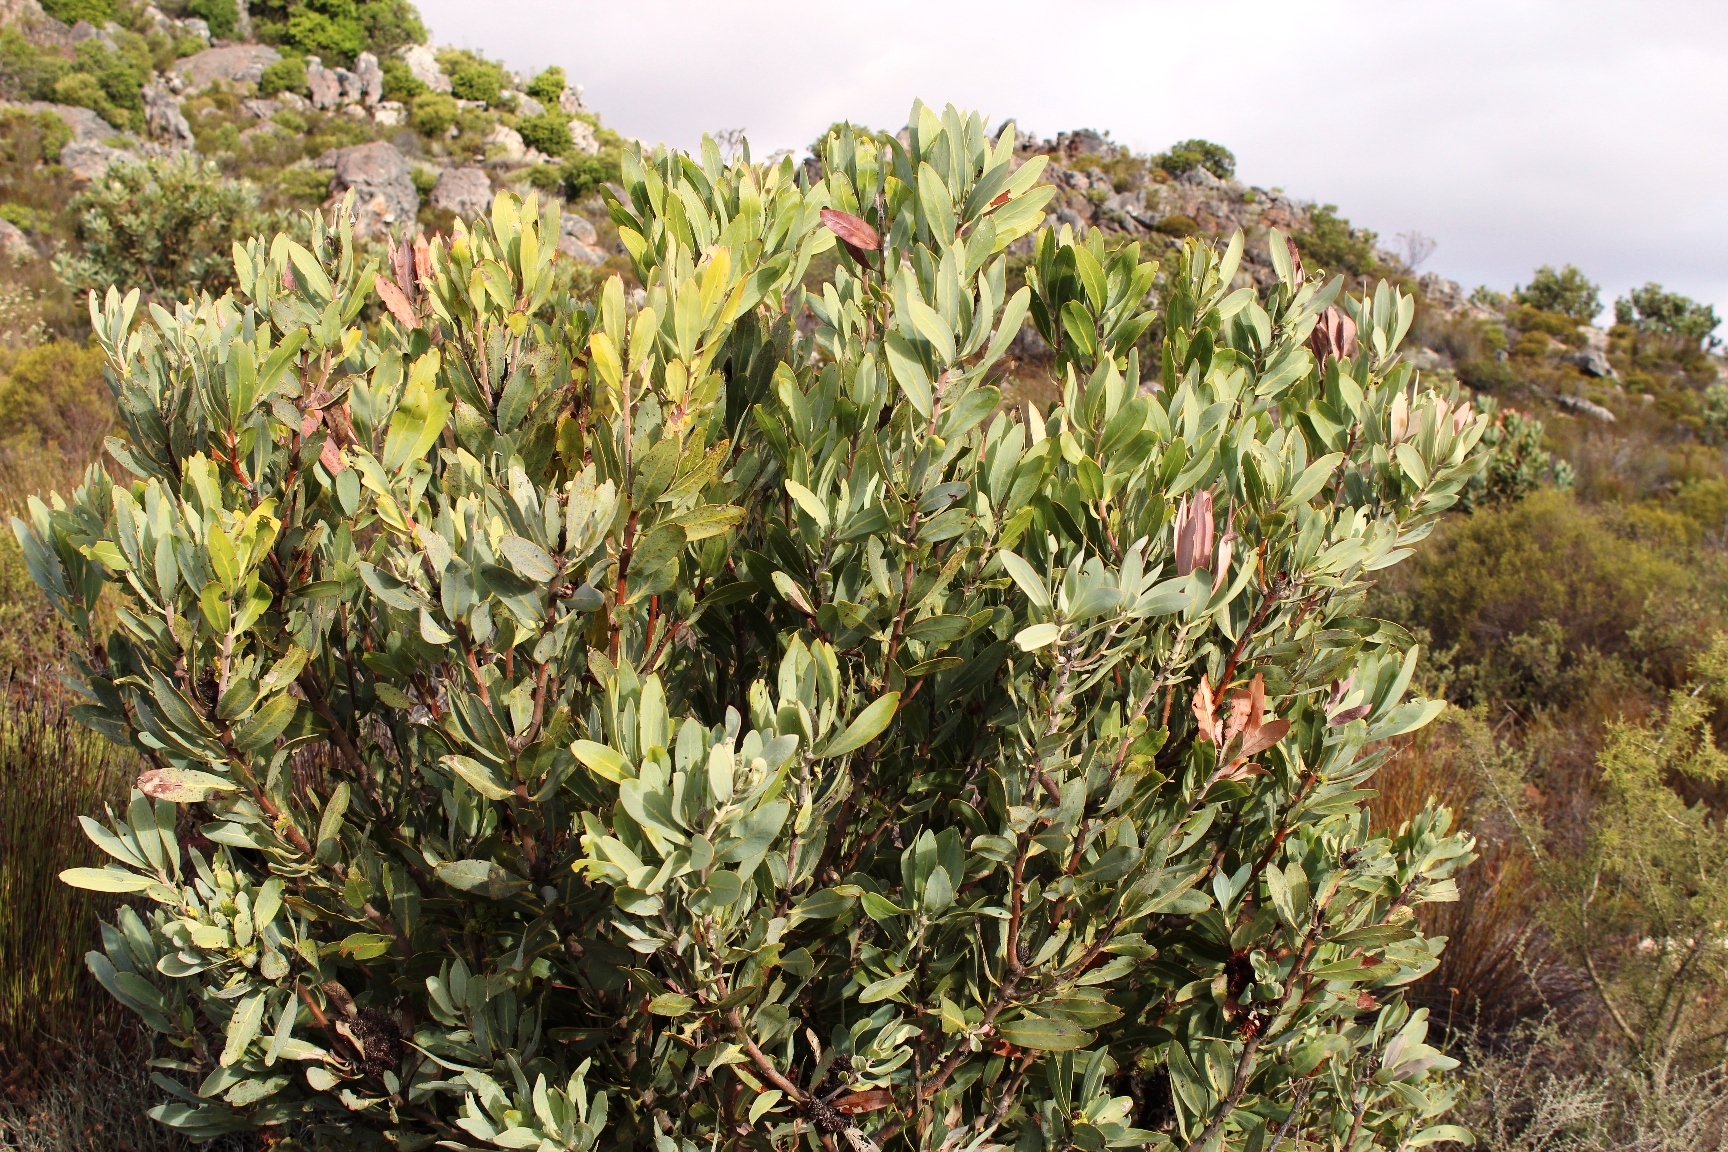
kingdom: Plantae
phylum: Tracheophyta
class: Magnoliopsida
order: Proteales
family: Proteaceae
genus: Protea
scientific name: Protea laurifolia
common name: Grey-leaf sugarbsh
